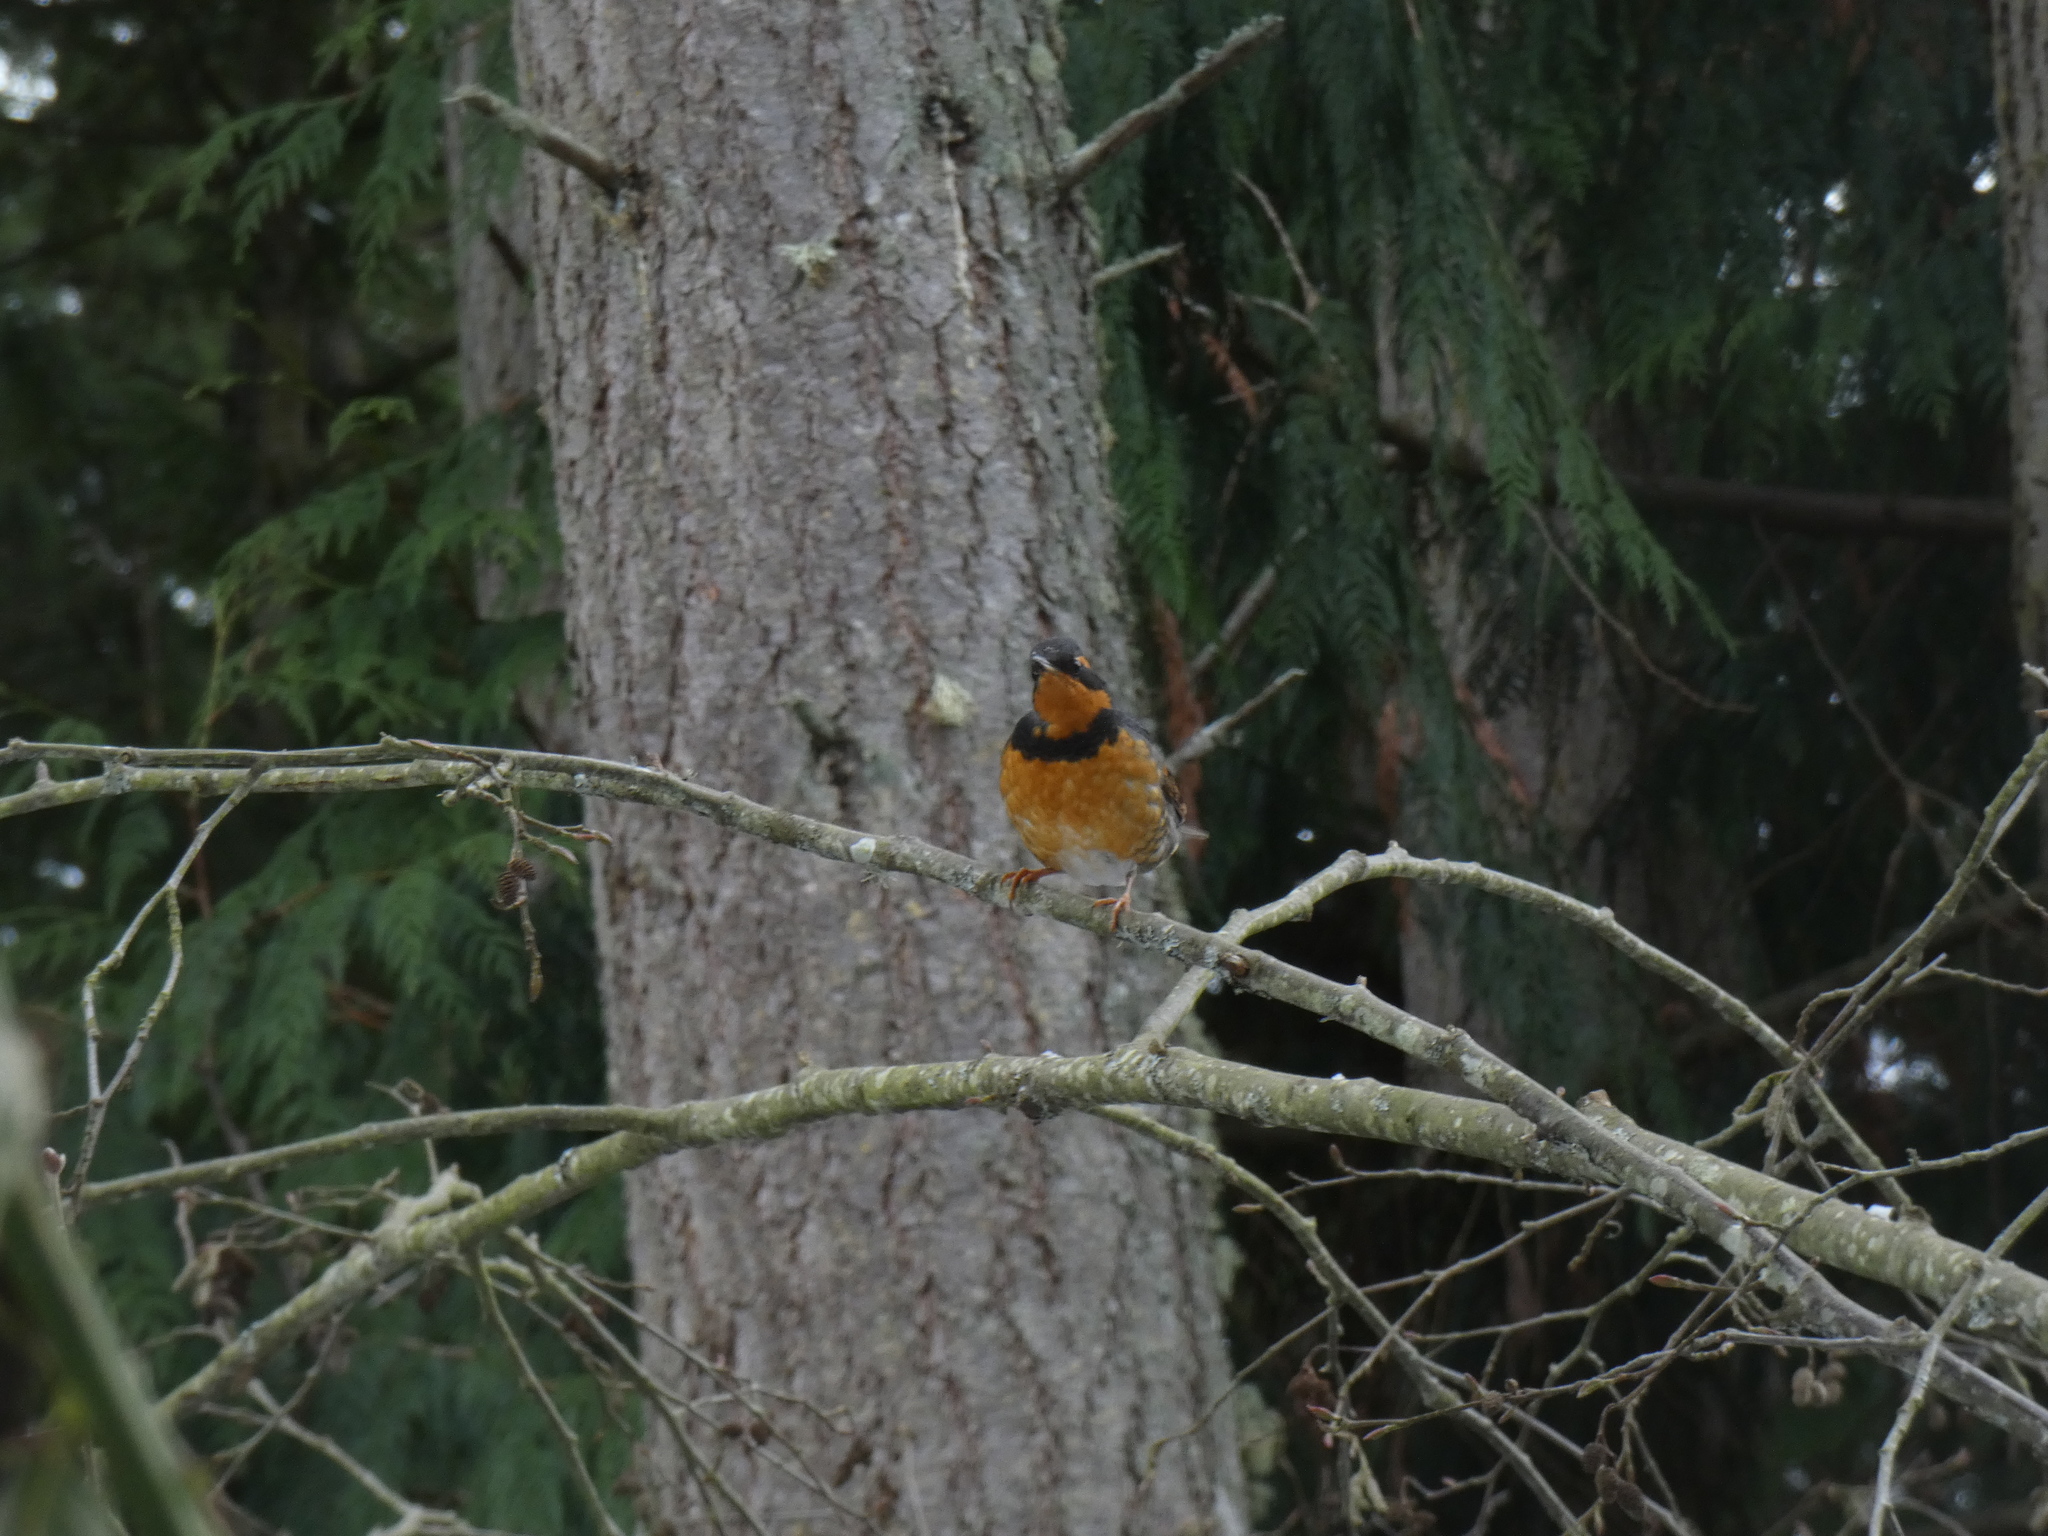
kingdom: Animalia
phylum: Chordata
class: Aves
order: Passeriformes
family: Turdidae
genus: Ixoreus
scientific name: Ixoreus naevius
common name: Varied thrush
